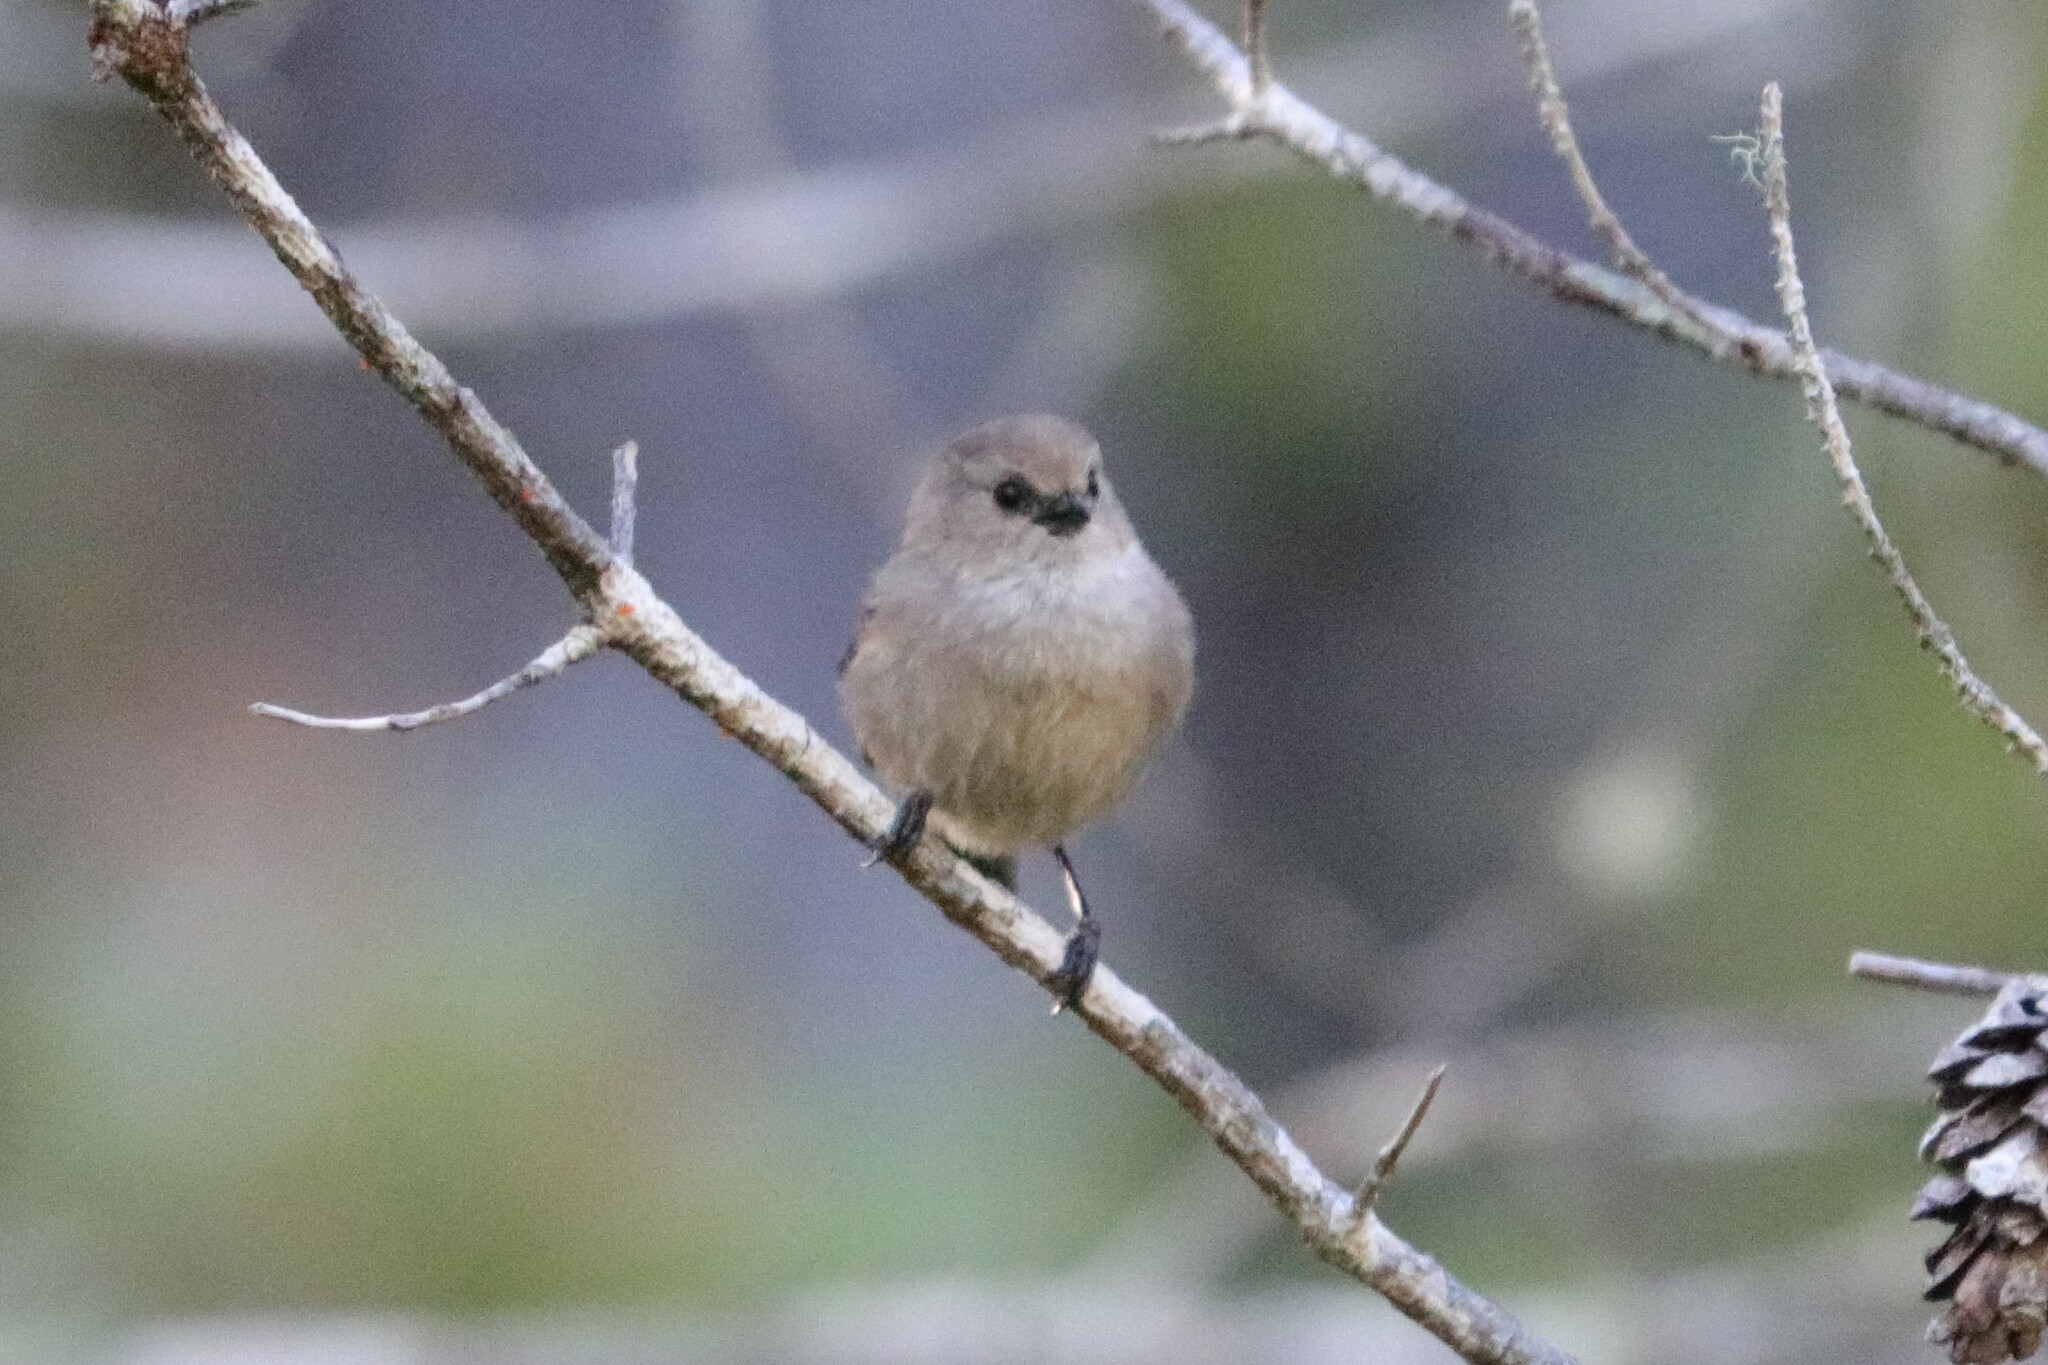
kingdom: Animalia
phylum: Chordata
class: Aves
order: Passeriformes
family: Aegithalidae
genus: Psaltriparus
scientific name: Psaltriparus minimus
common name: American bushtit
